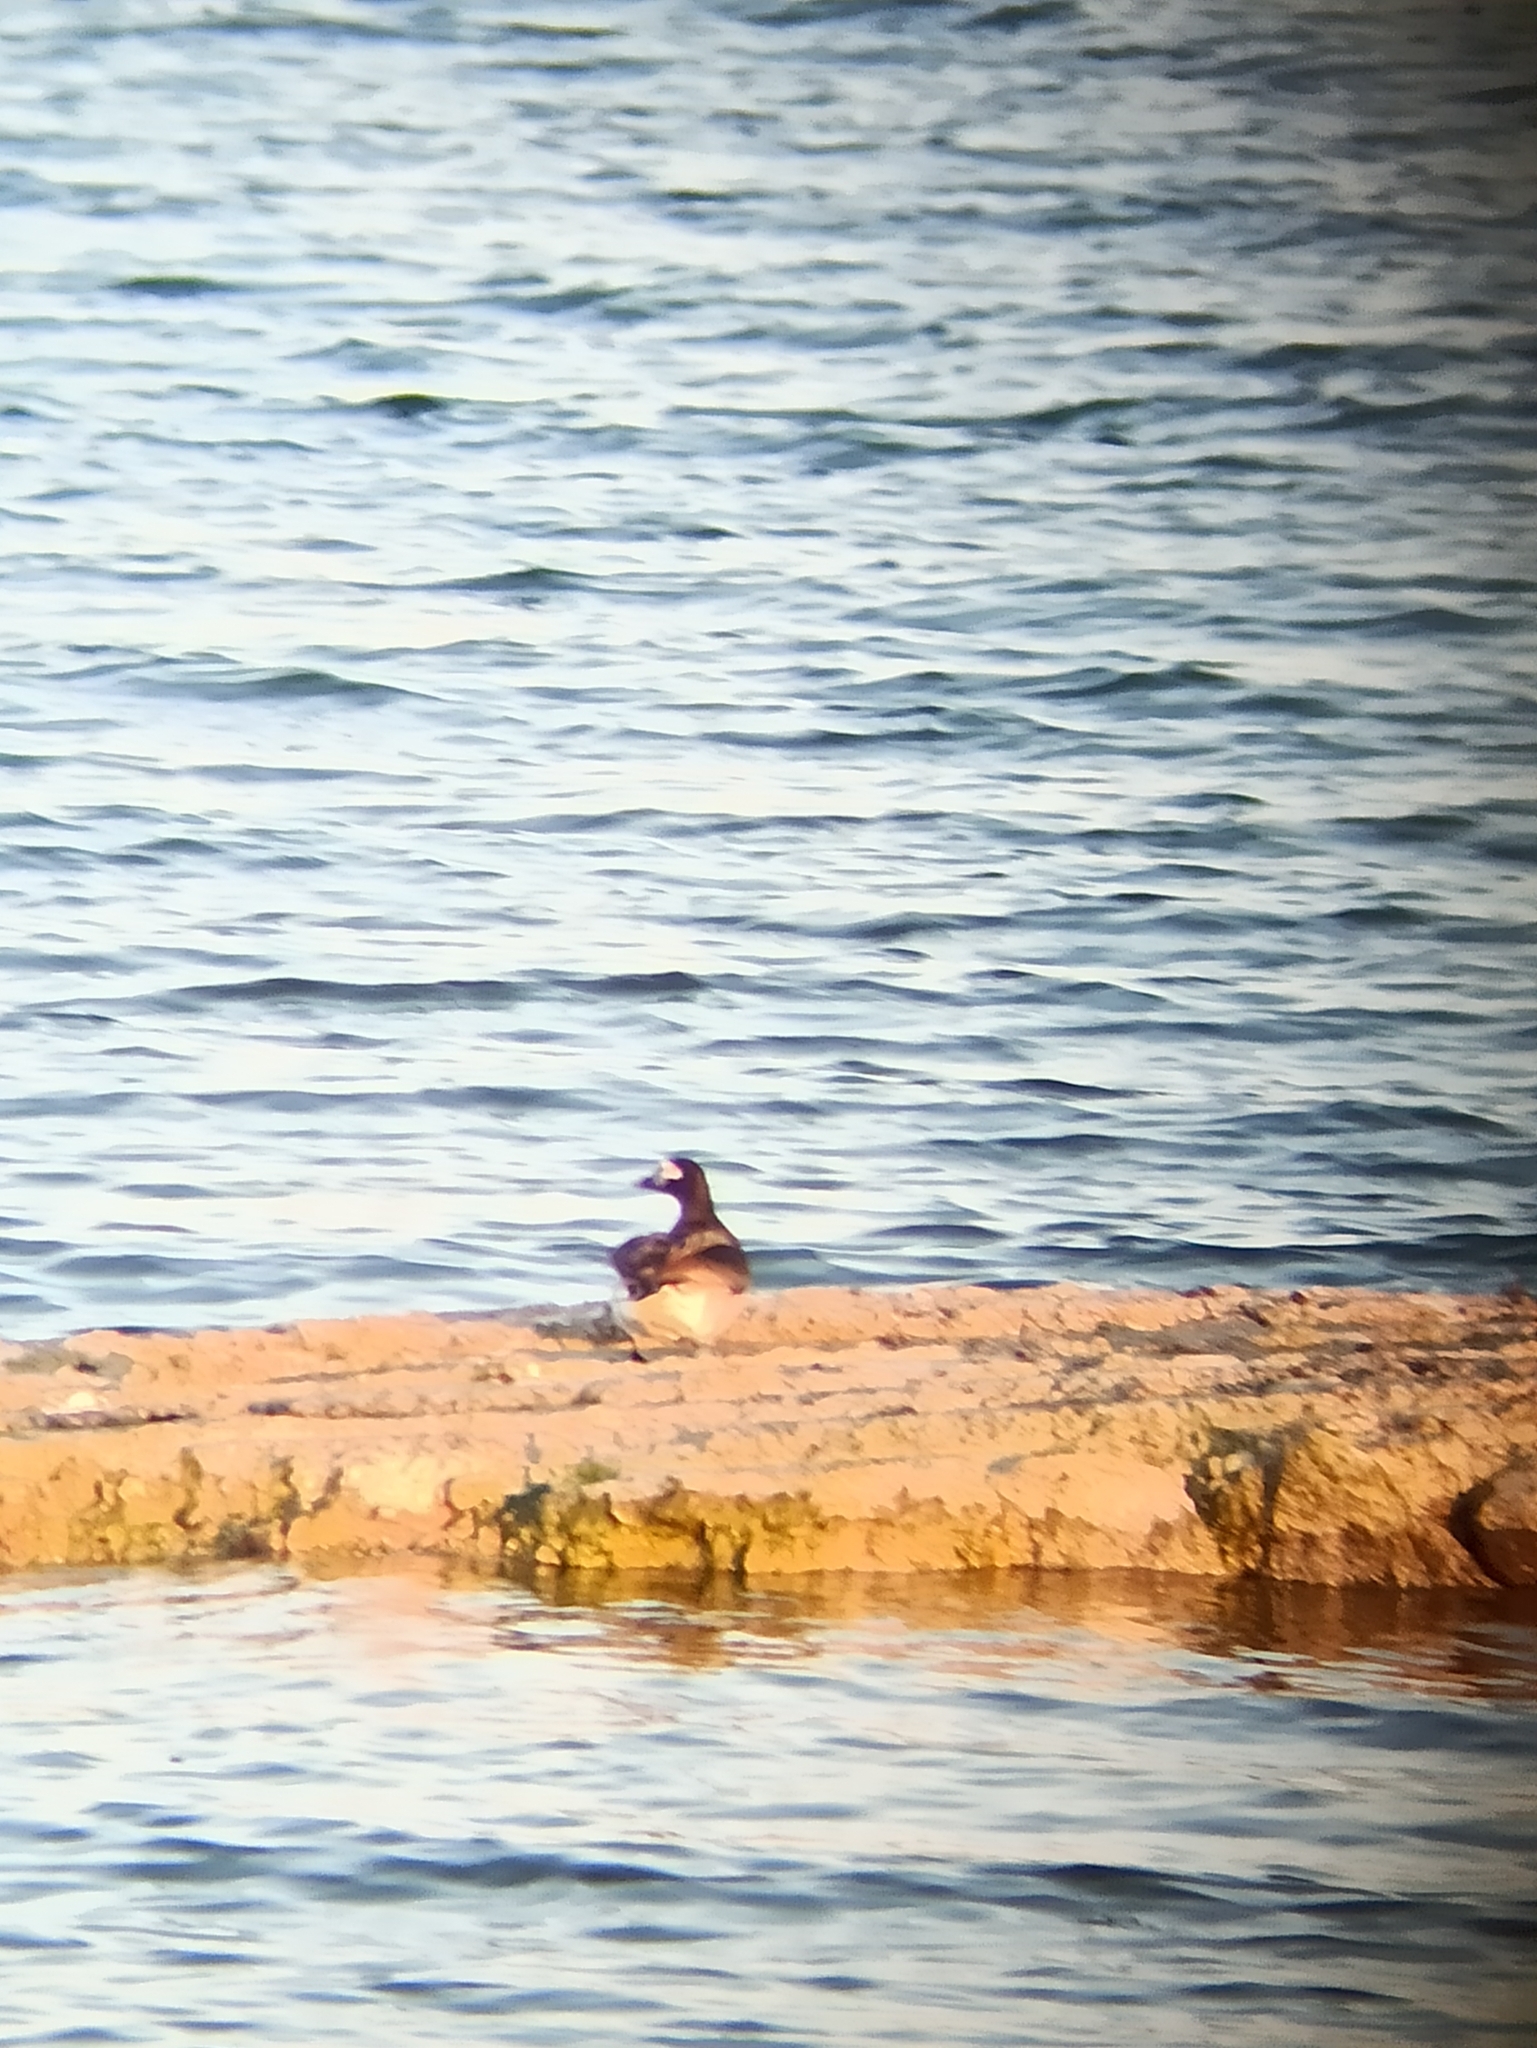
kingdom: Animalia
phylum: Chordata
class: Aves
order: Anseriformes
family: Anatidae
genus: Clangula
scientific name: Clangula hyemalis
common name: Long-tailed duck
